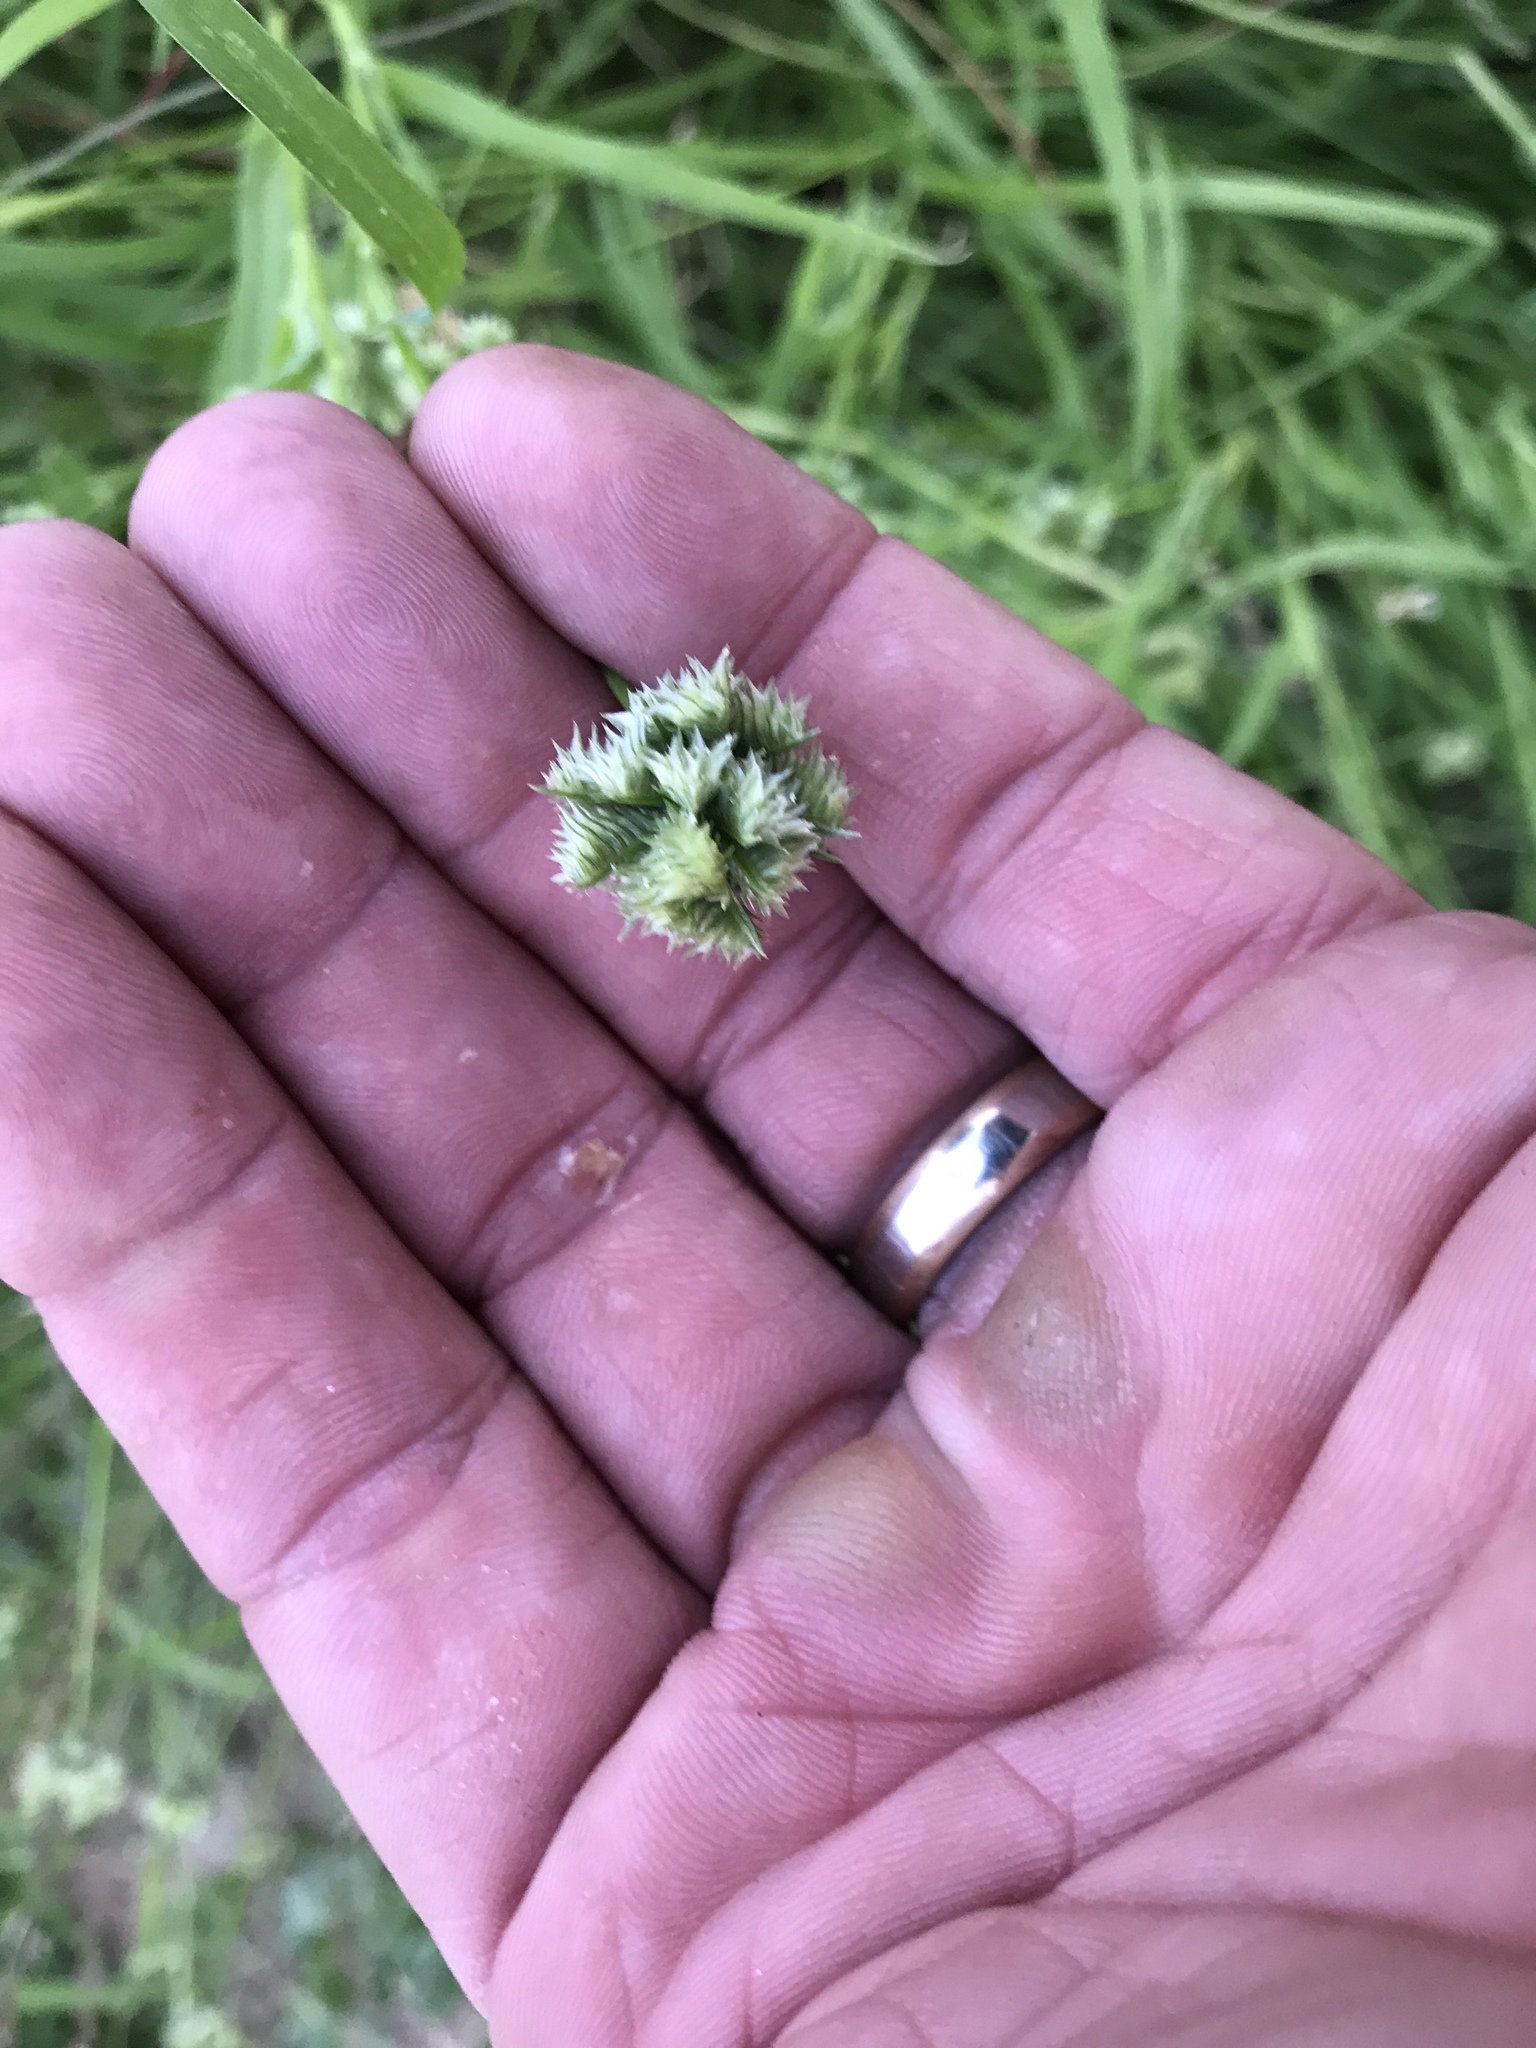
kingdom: Plantae
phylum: Tracheophyta
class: Liliopsida
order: Poales
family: Poaceae
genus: Dactyloctenium
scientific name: Dactyloctenium radulans
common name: Button-grass
